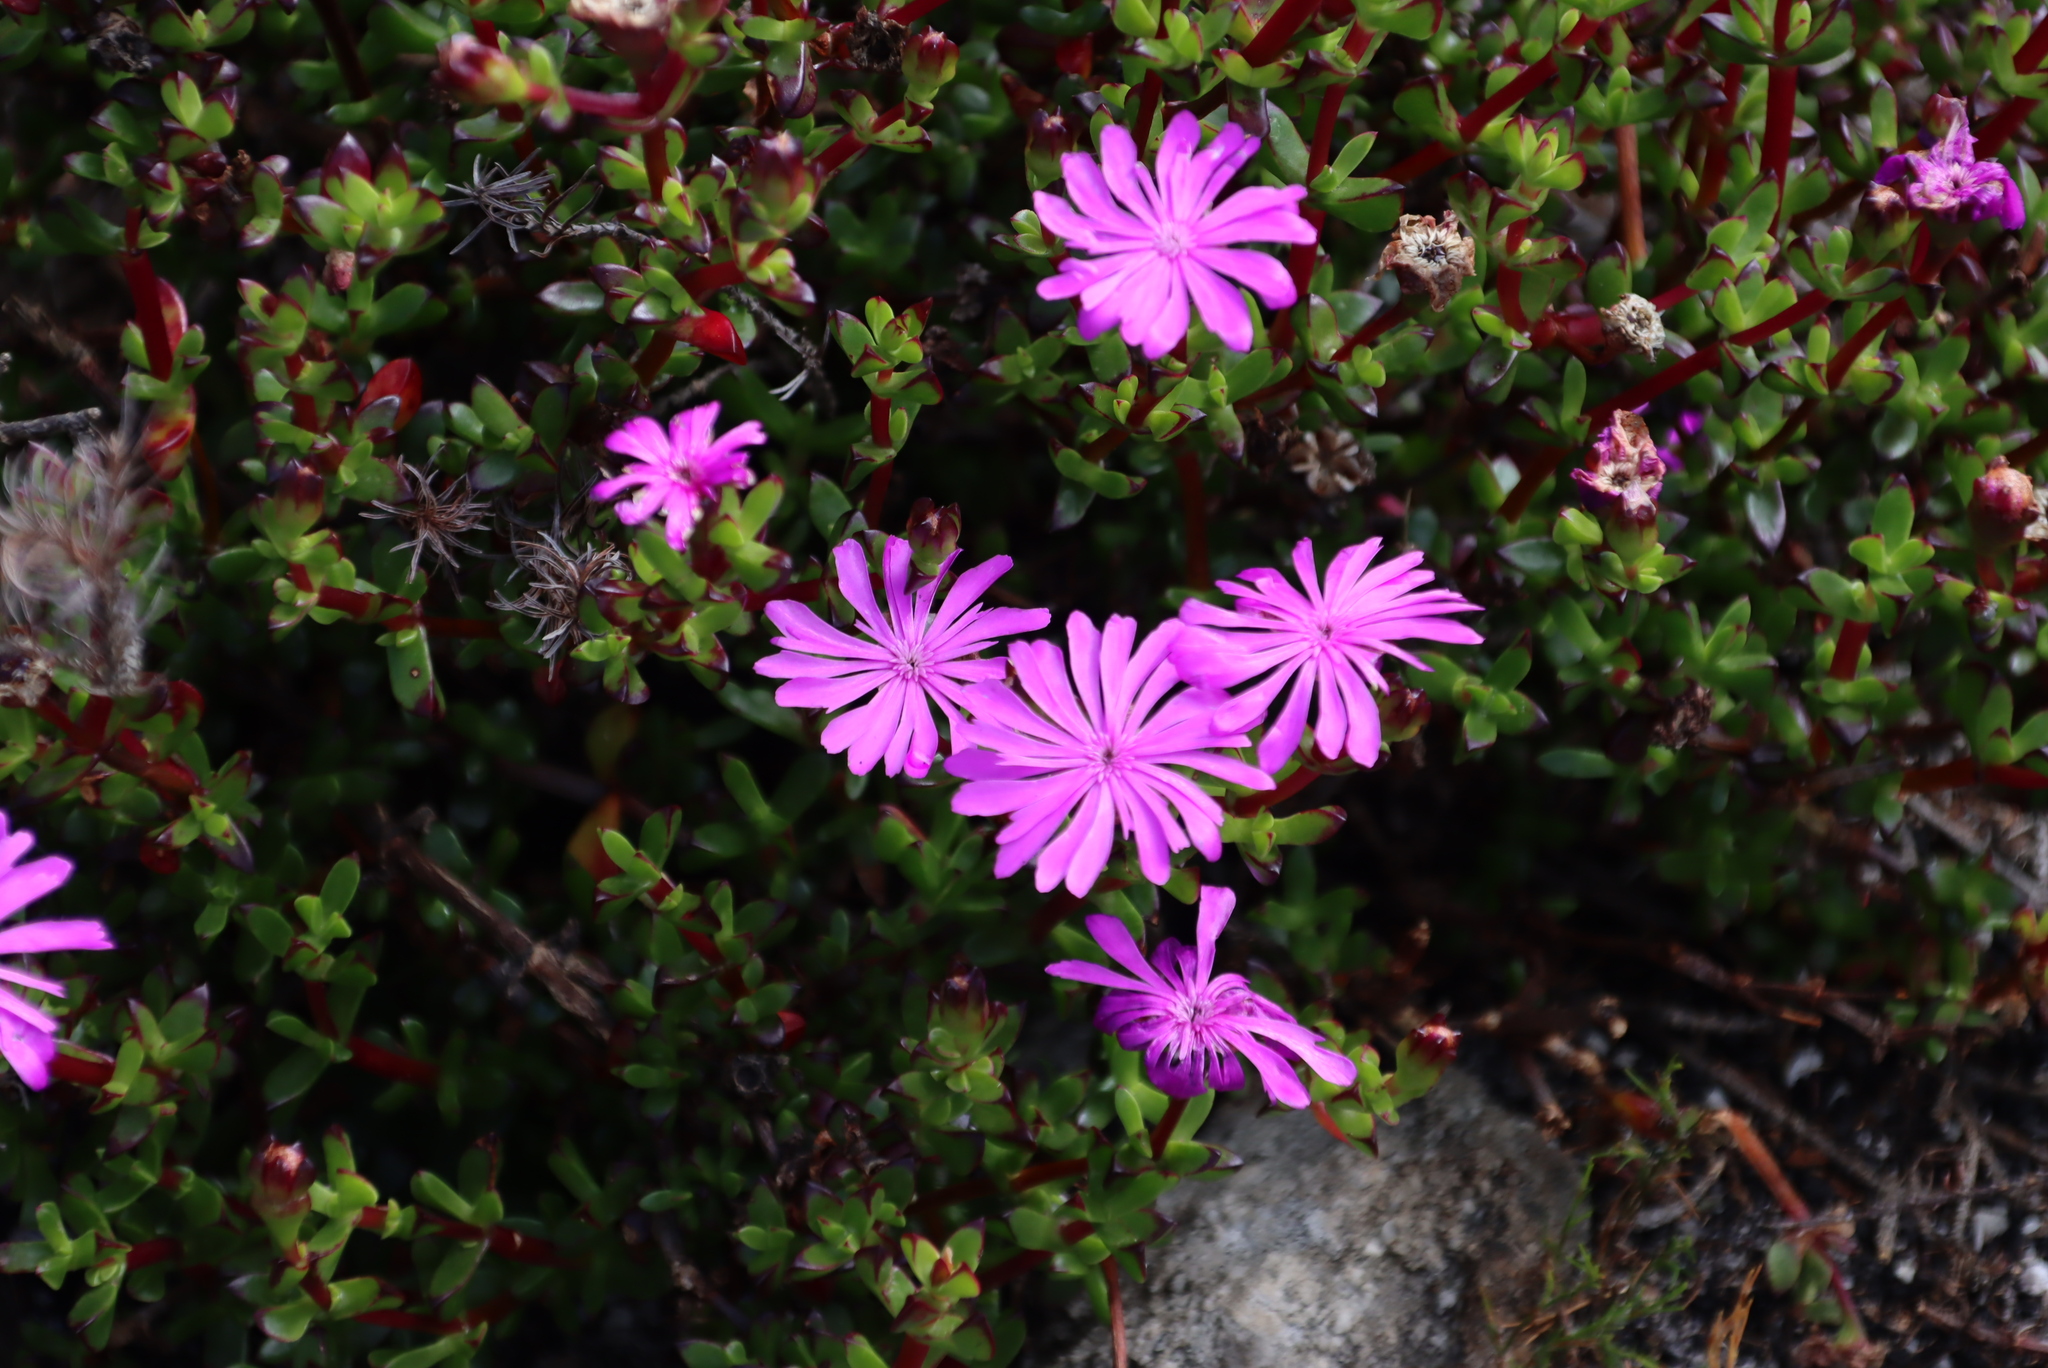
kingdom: Plantae
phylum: Tracheophyta
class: Magnoliopsida
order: Caryophyllales
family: Aizoaceae
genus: Erepsia
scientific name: Erepsia inclaudens
